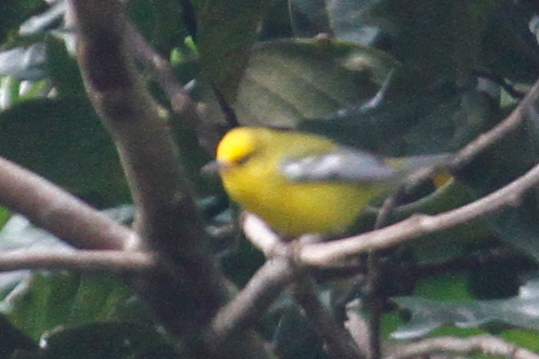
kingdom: Animalia
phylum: Chordata
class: Aves
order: Passeriformes
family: Parulidae
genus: Vermivora
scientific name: Vermivora cyanoptera
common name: Blue-winged warbler
